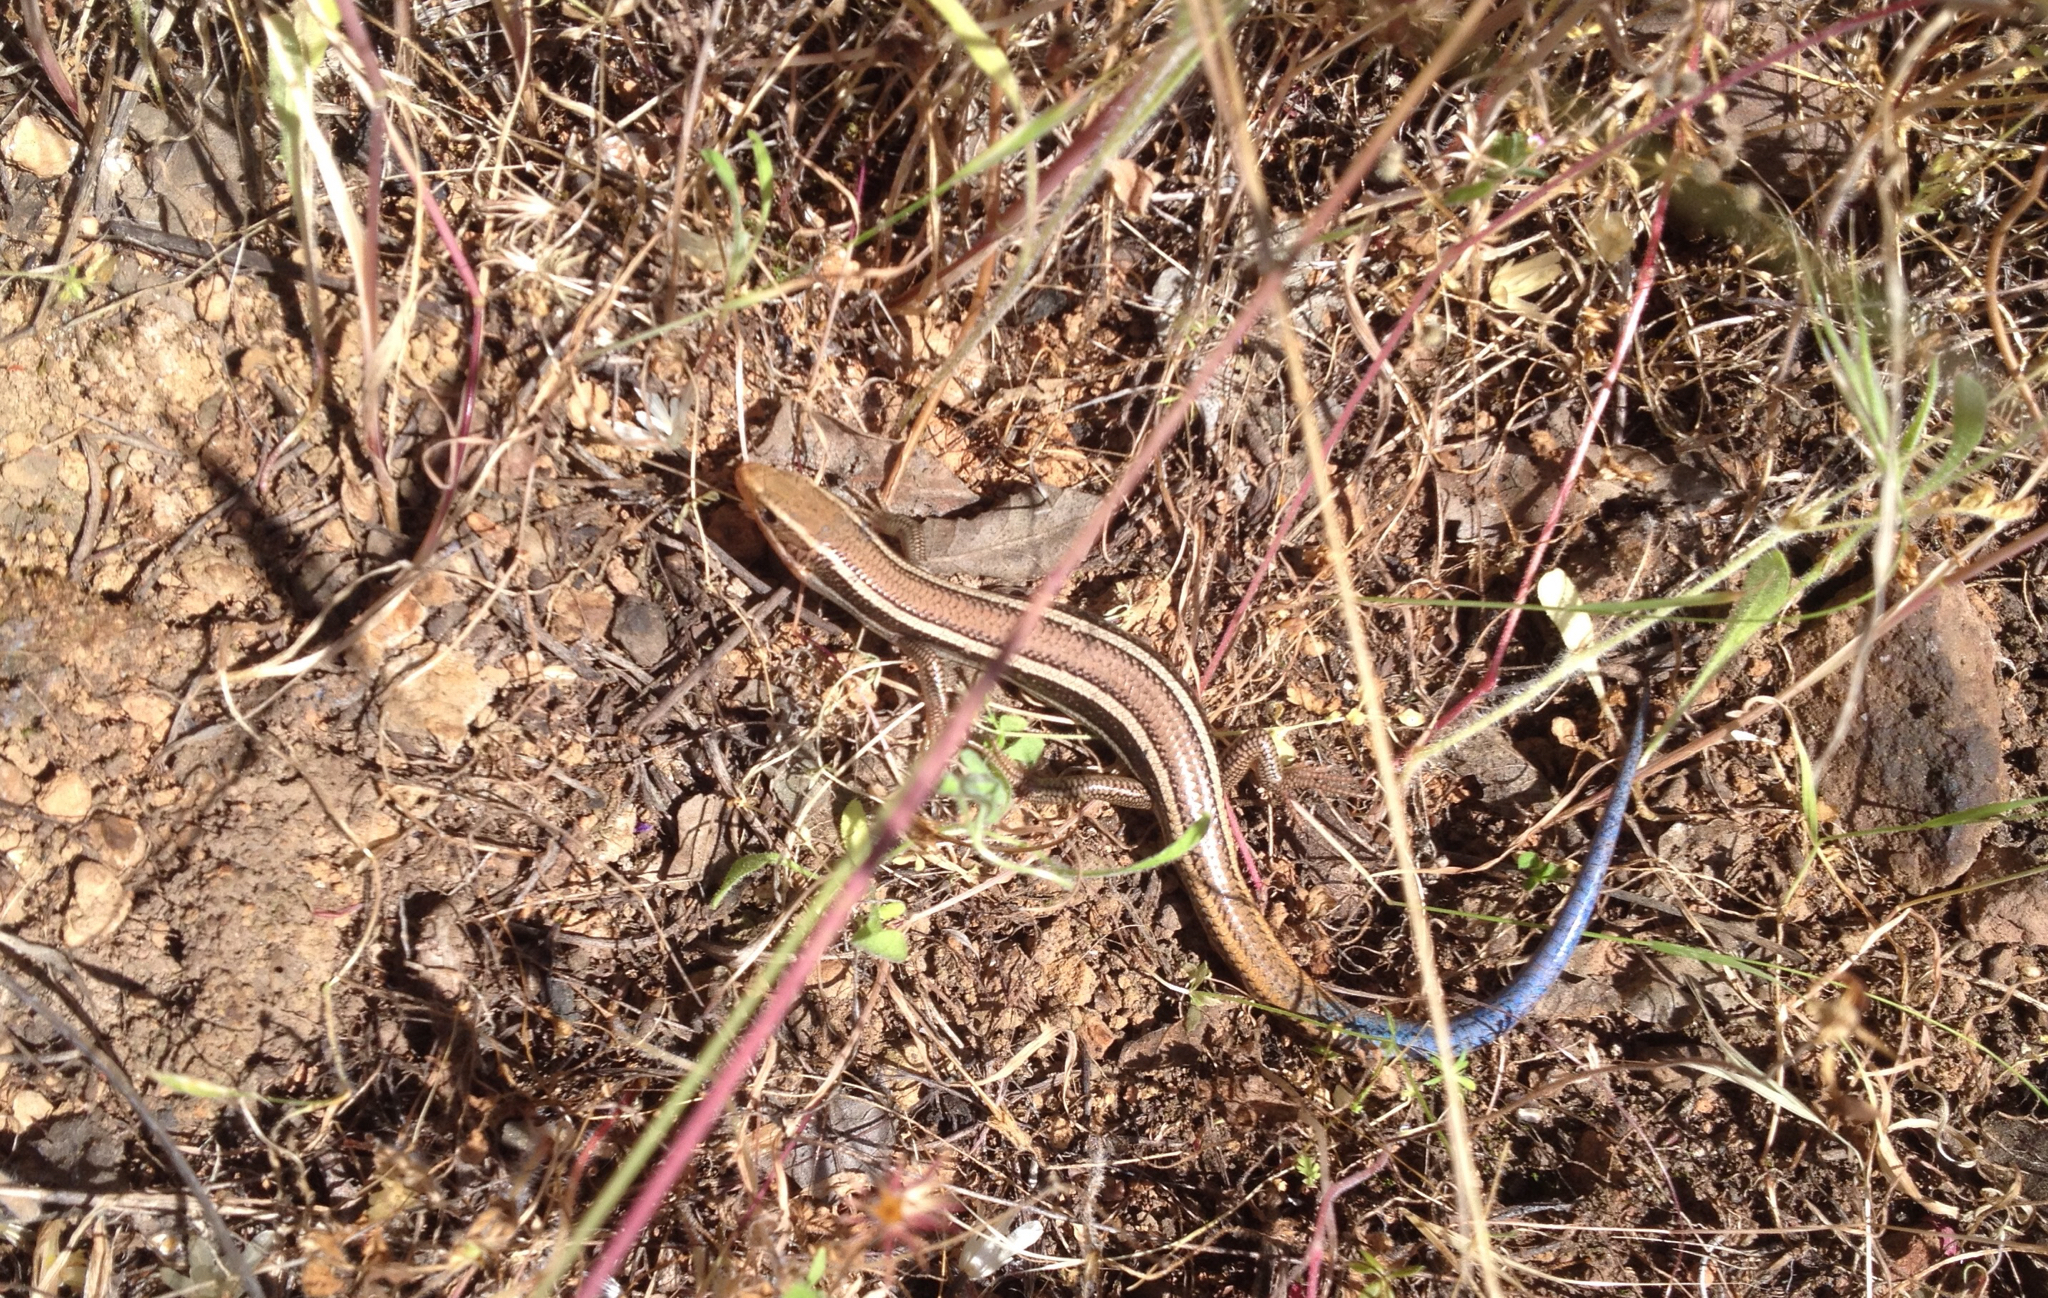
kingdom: Animalia
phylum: Chordata
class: Squamata
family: Scincidae
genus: Plestiodon
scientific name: Plestiodon skiltonianus
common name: Coronado island skink [interparietalis]
